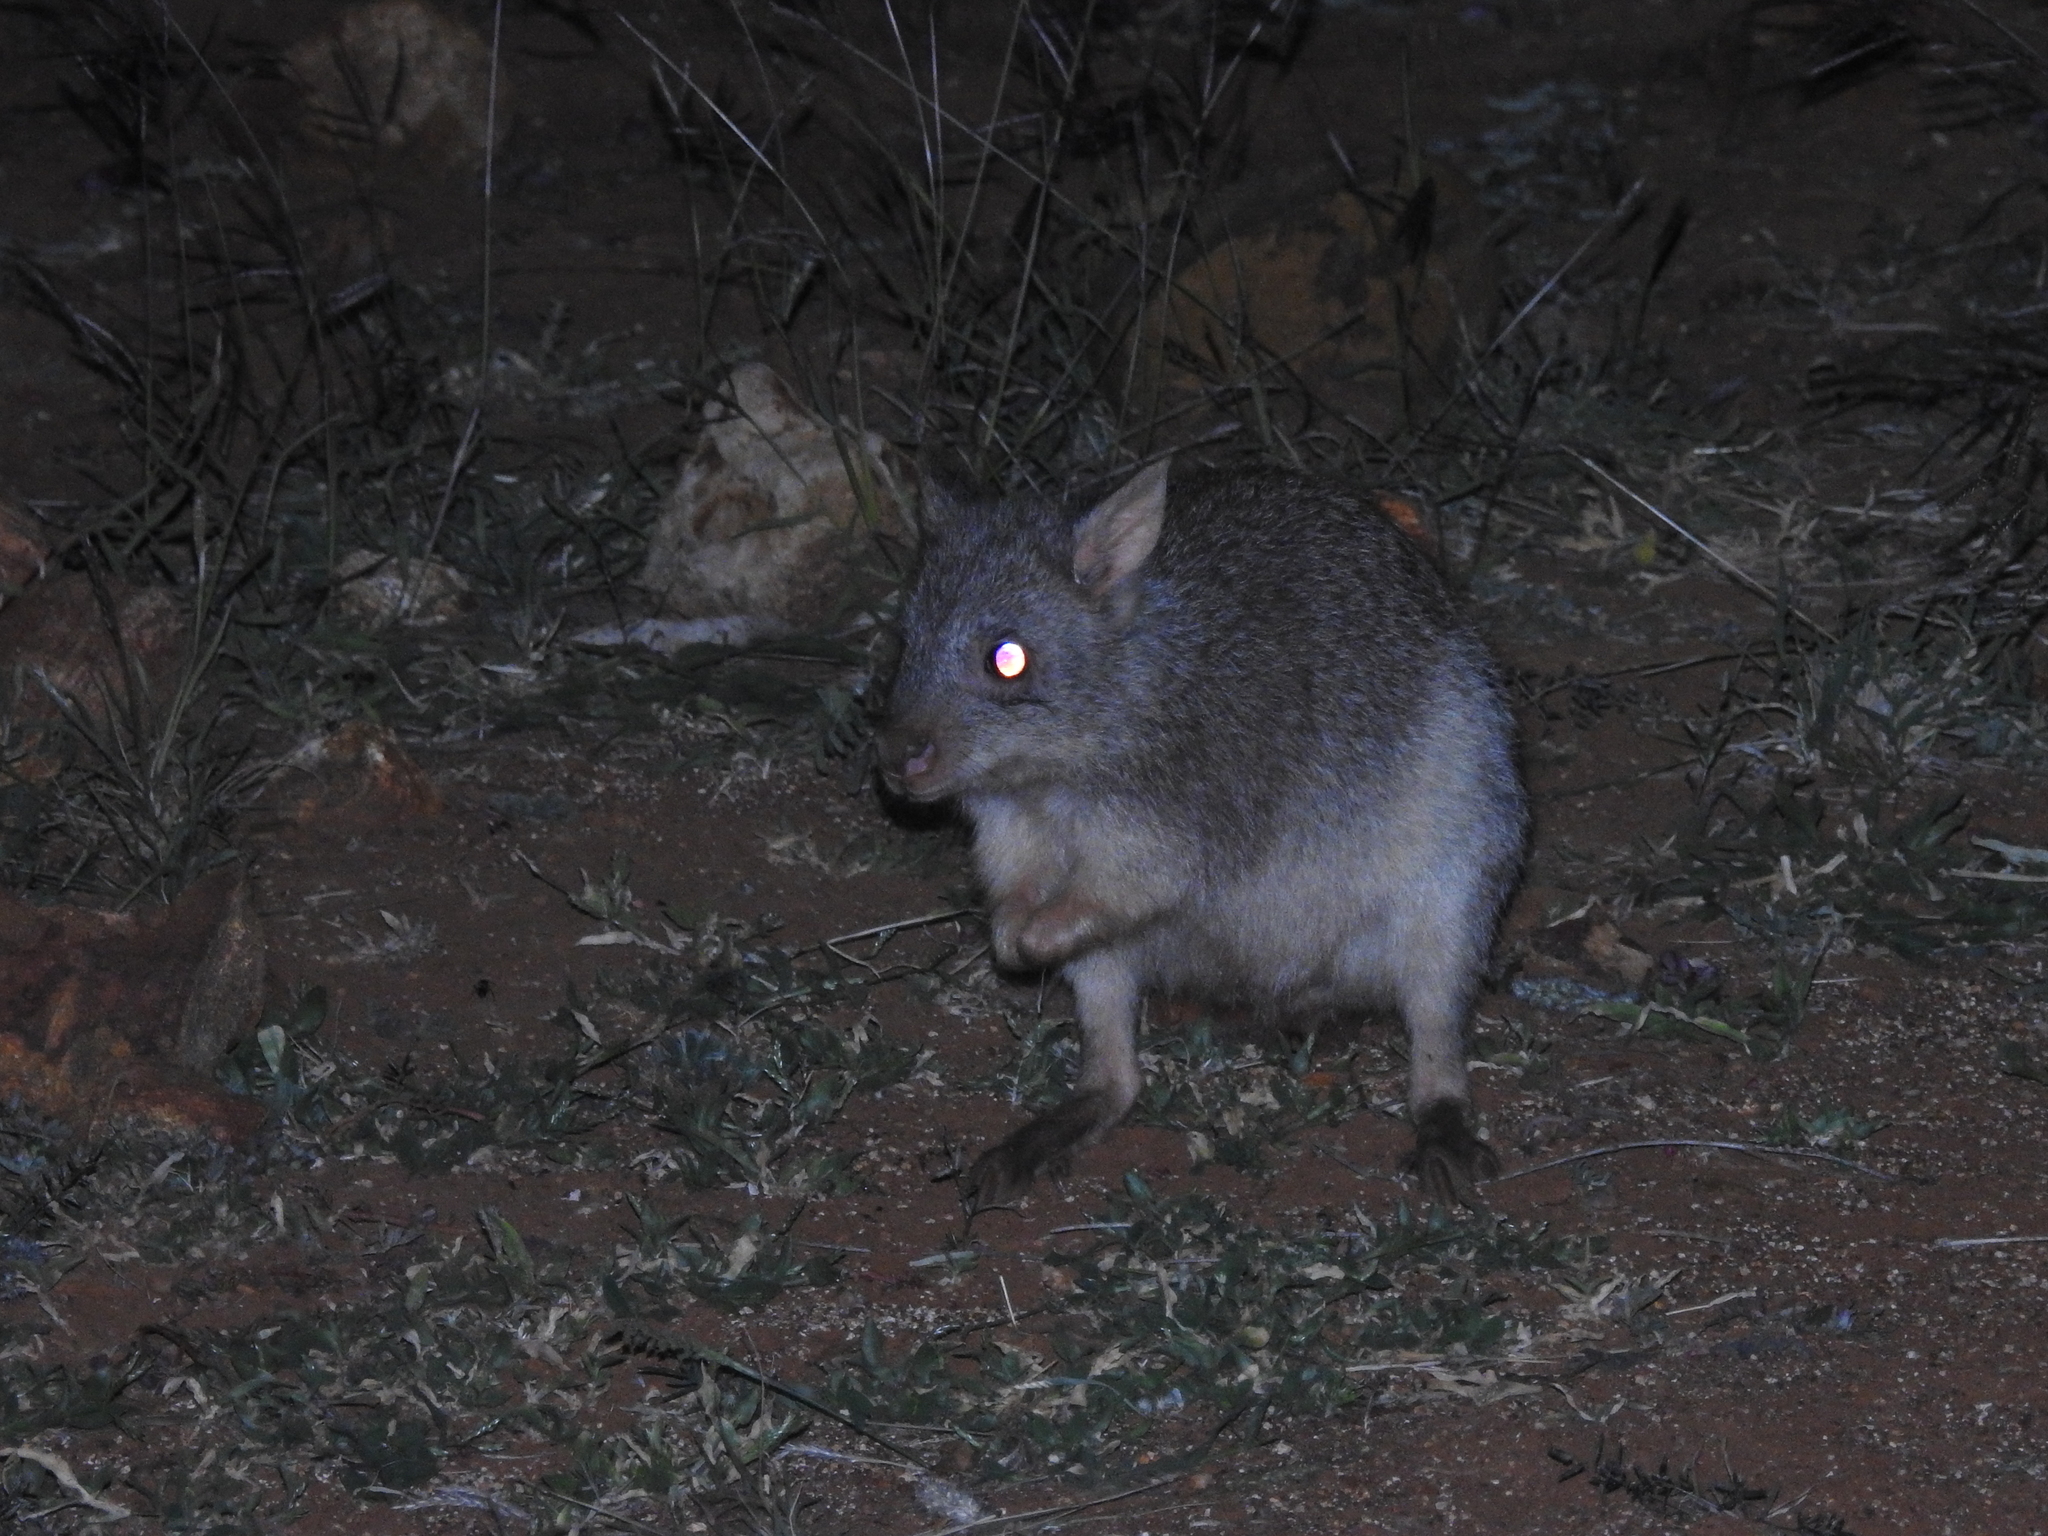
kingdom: Animalia
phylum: Chordata
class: Mammalia
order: Diprotodontia
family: Potoroidae
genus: Aepyprymnus
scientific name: Aepyprymnus rufescens
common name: Rufous rat-kangaroo
